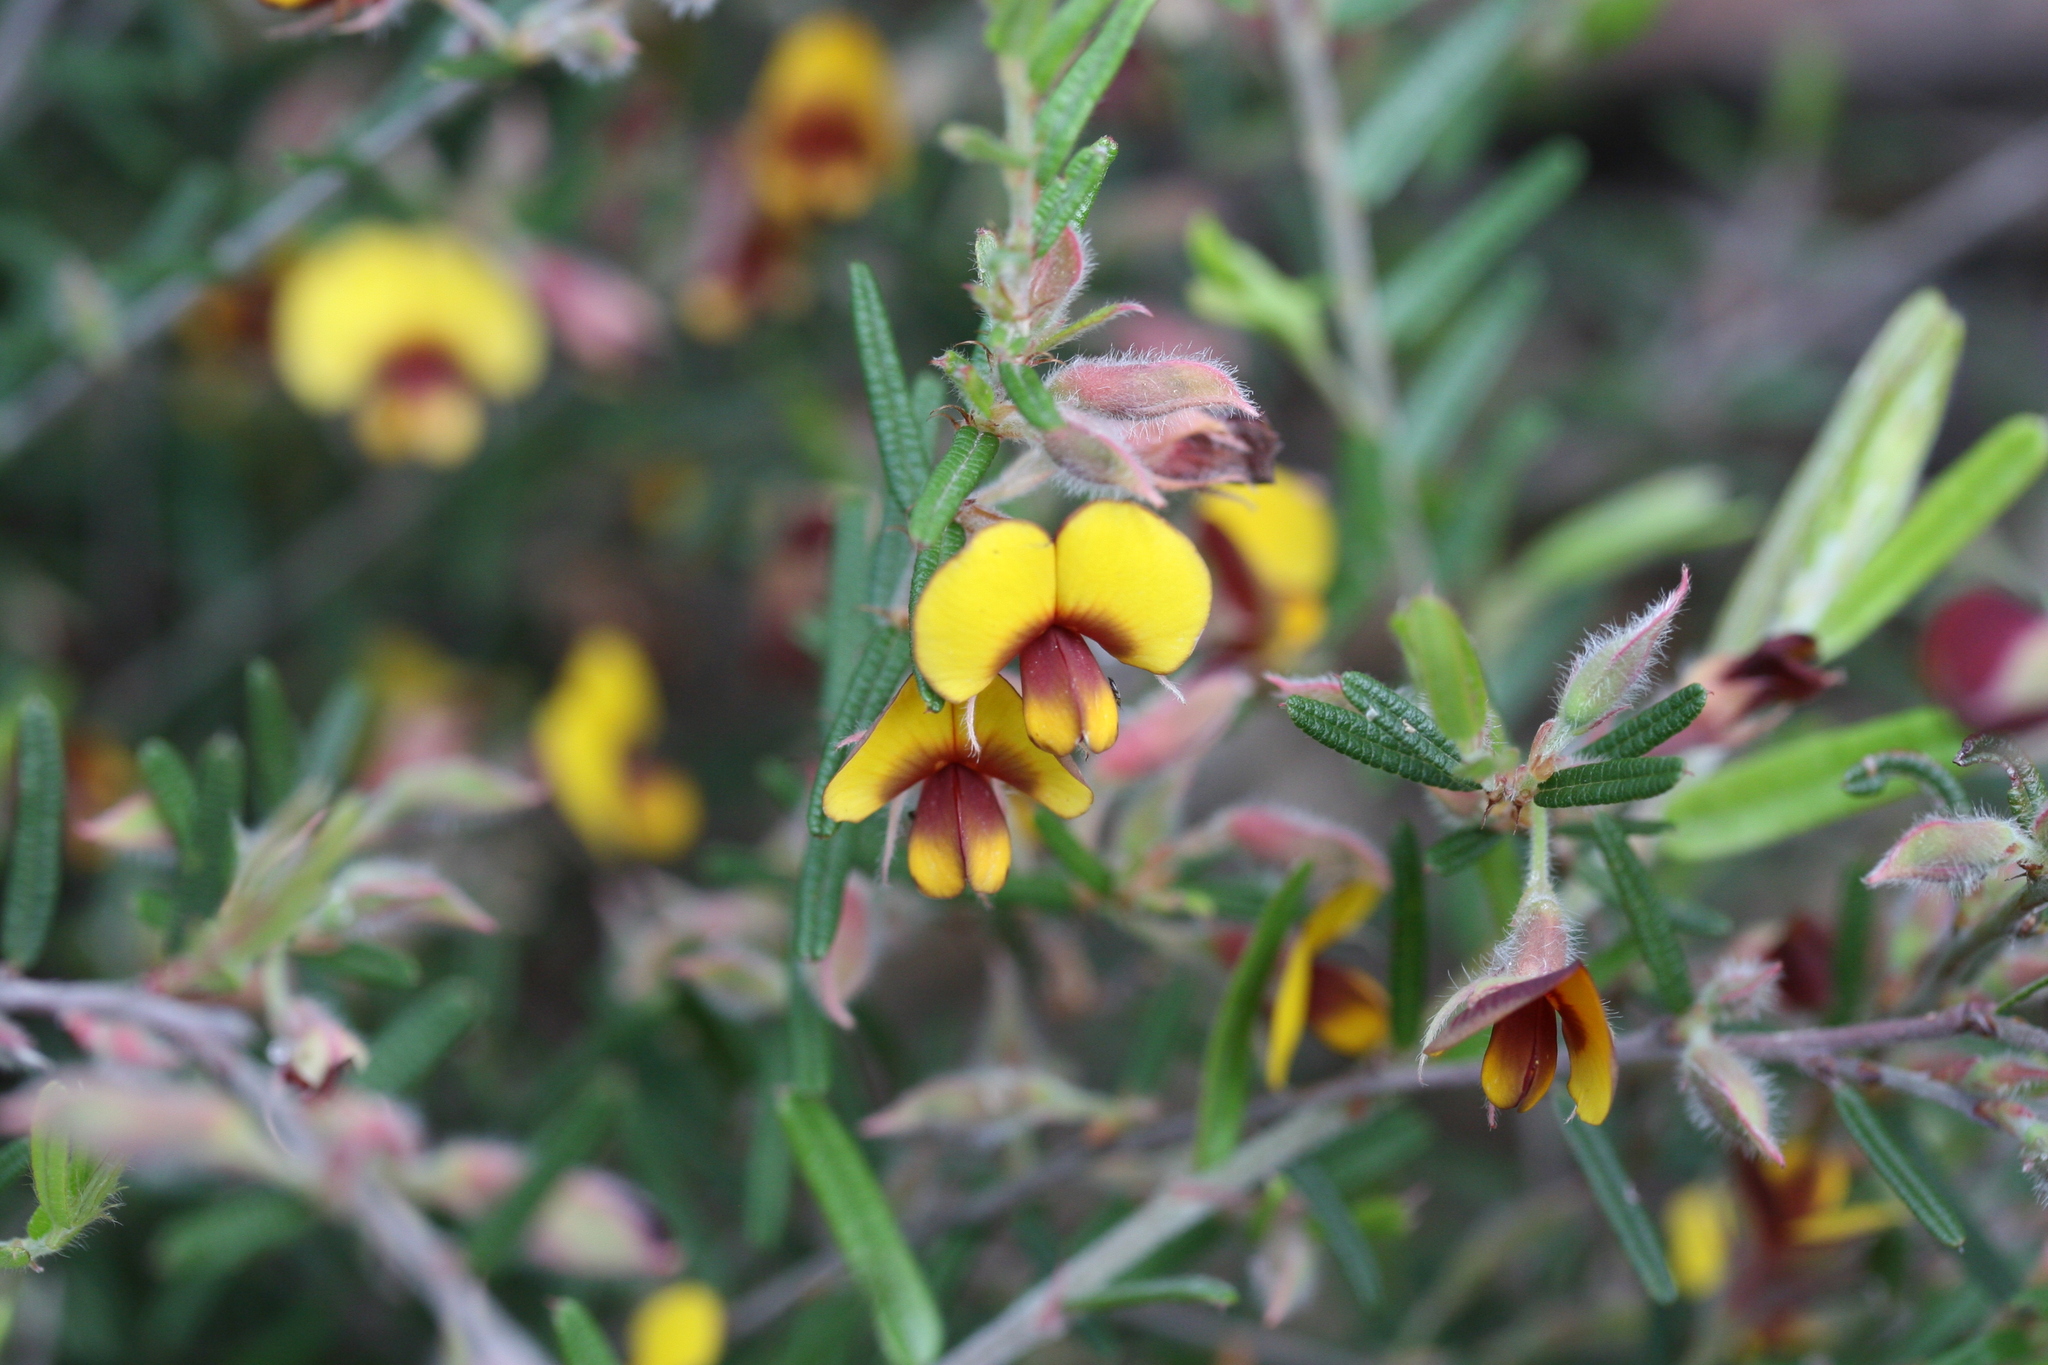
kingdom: Plantae
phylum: Tracheophyta
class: Magnoliopsida
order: Fabales
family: Fabaceae
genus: Bossiaea
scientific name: Bossiaea eriocarpa
